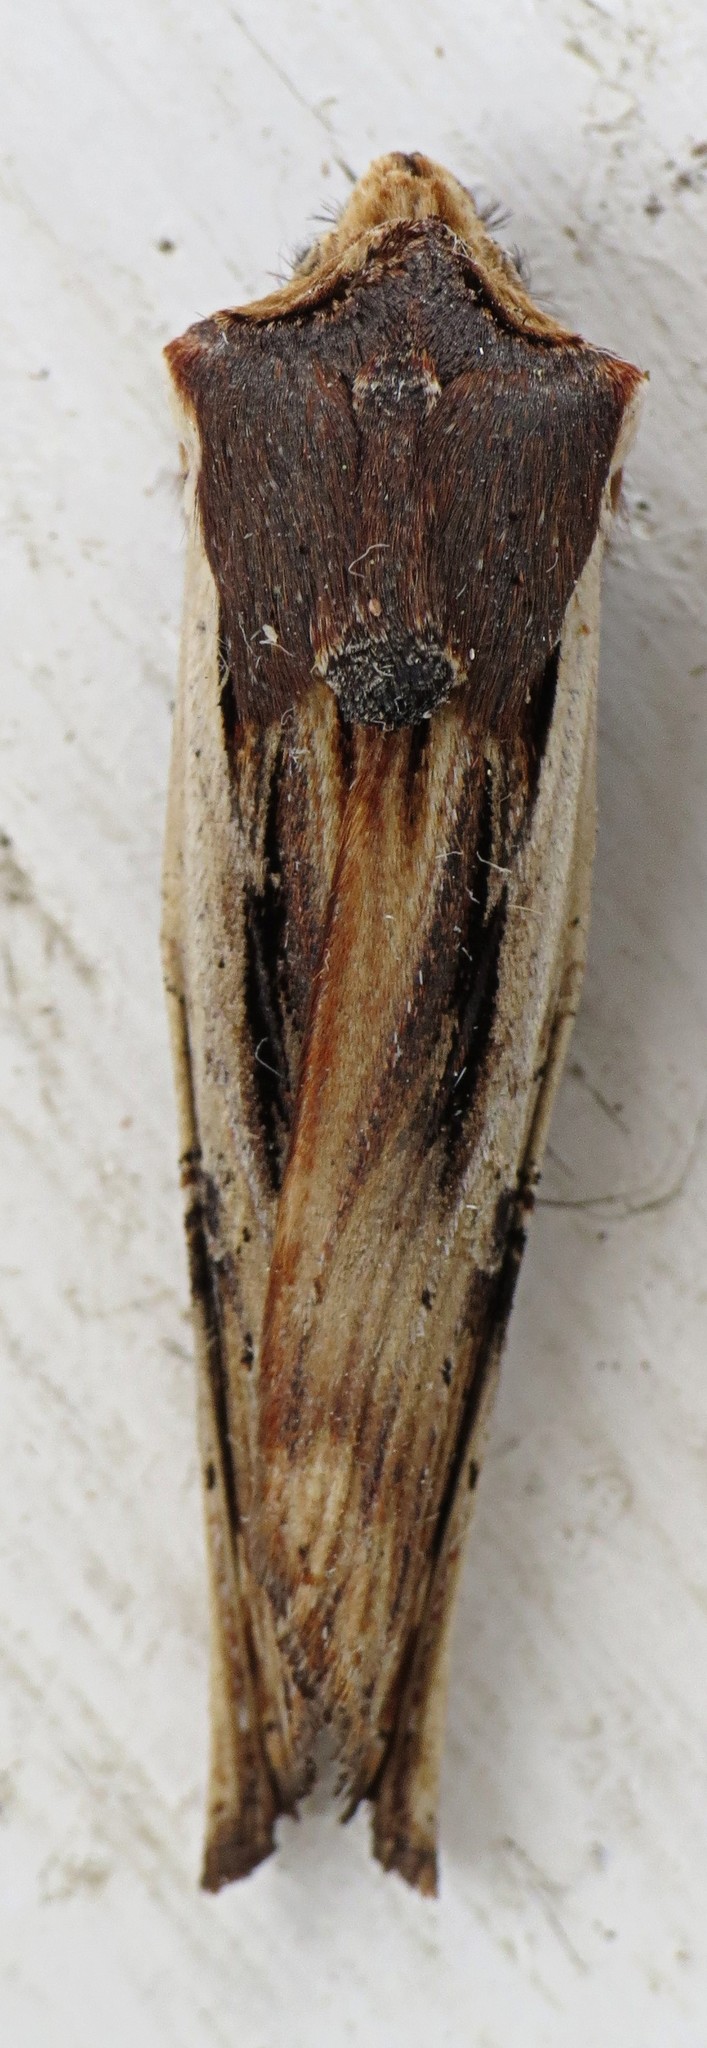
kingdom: Animalia
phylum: Arthropoda
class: Insecta
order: Lepidoptera
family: Noctuidae
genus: Xylena
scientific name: Xylena nupera
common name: American swordgrass moth
